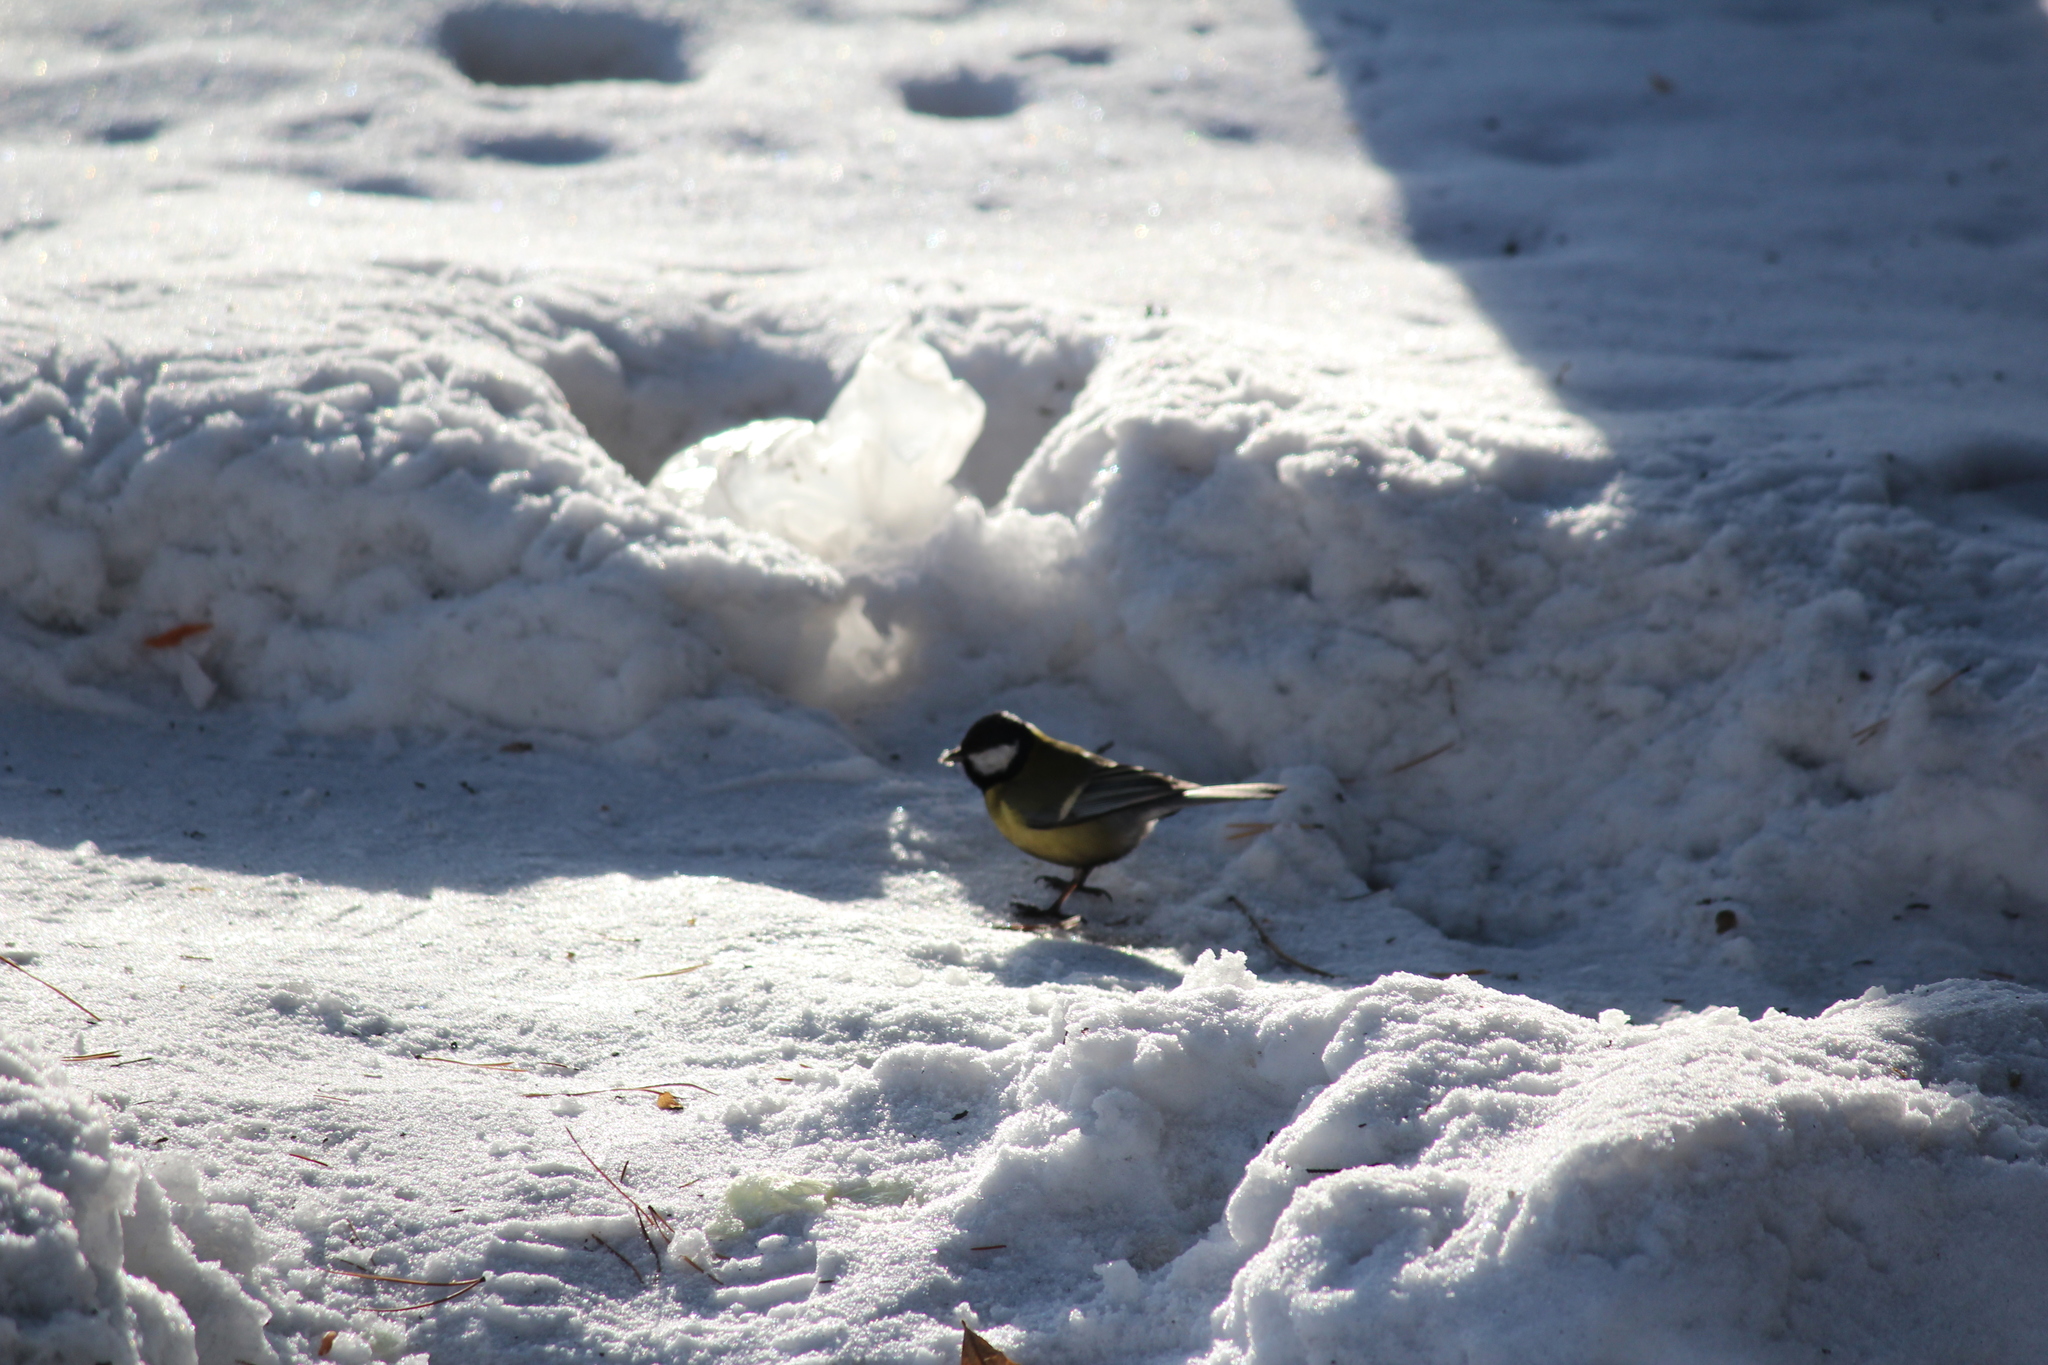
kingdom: Animalia
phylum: Chordata
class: Aves
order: Passeriformes
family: Paridae
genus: Parus
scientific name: Parus major
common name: Great tit
